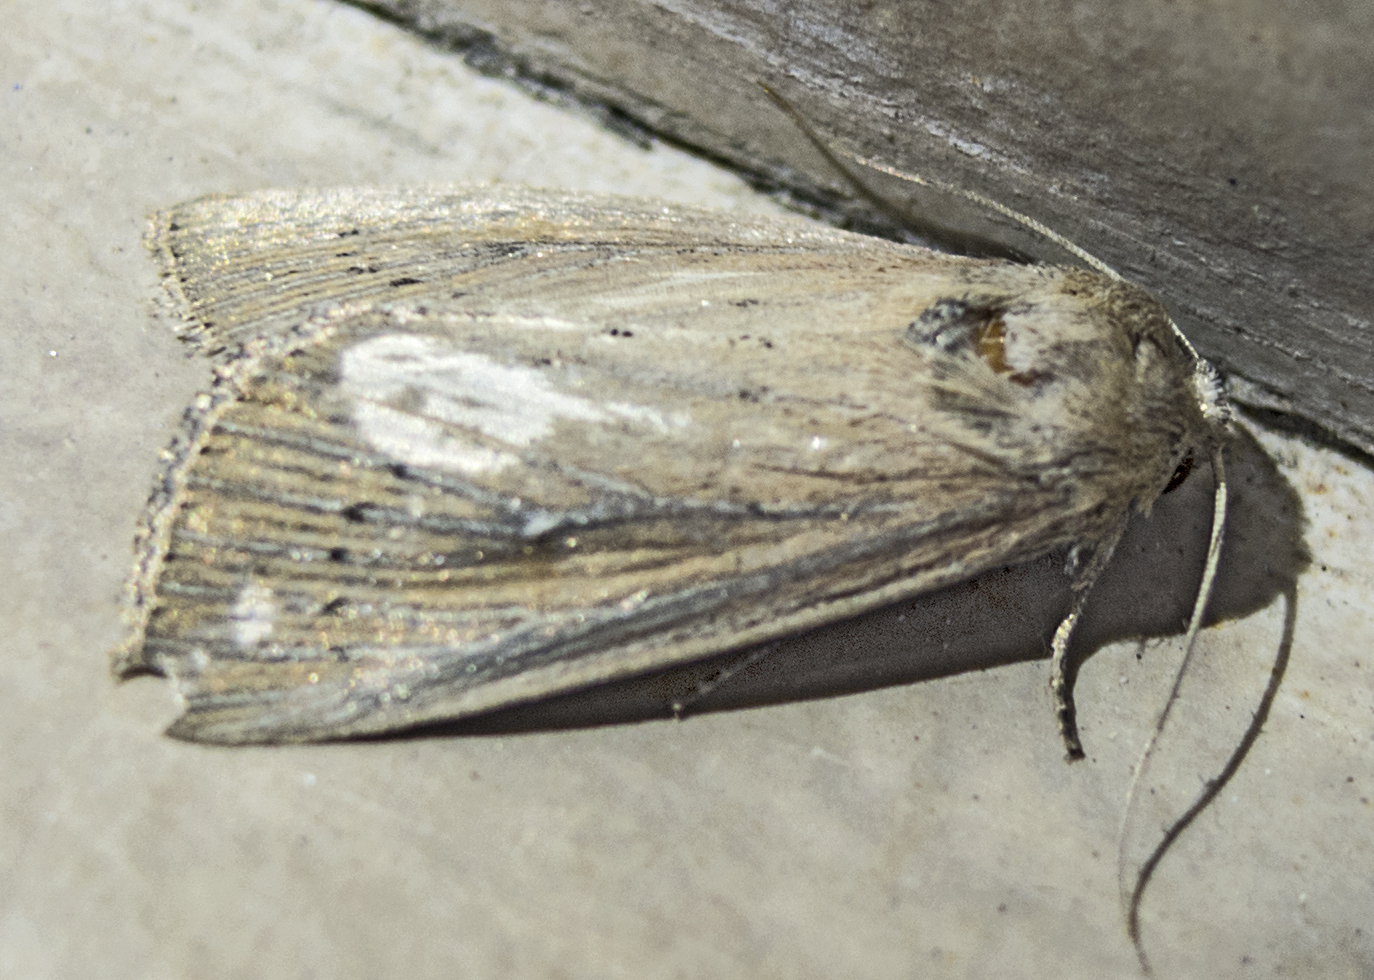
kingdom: Animalia
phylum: Arthropoda
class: Insecta
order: Lepidoptera
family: Noctuidae
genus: Leucania
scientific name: Leucania obsoleta
